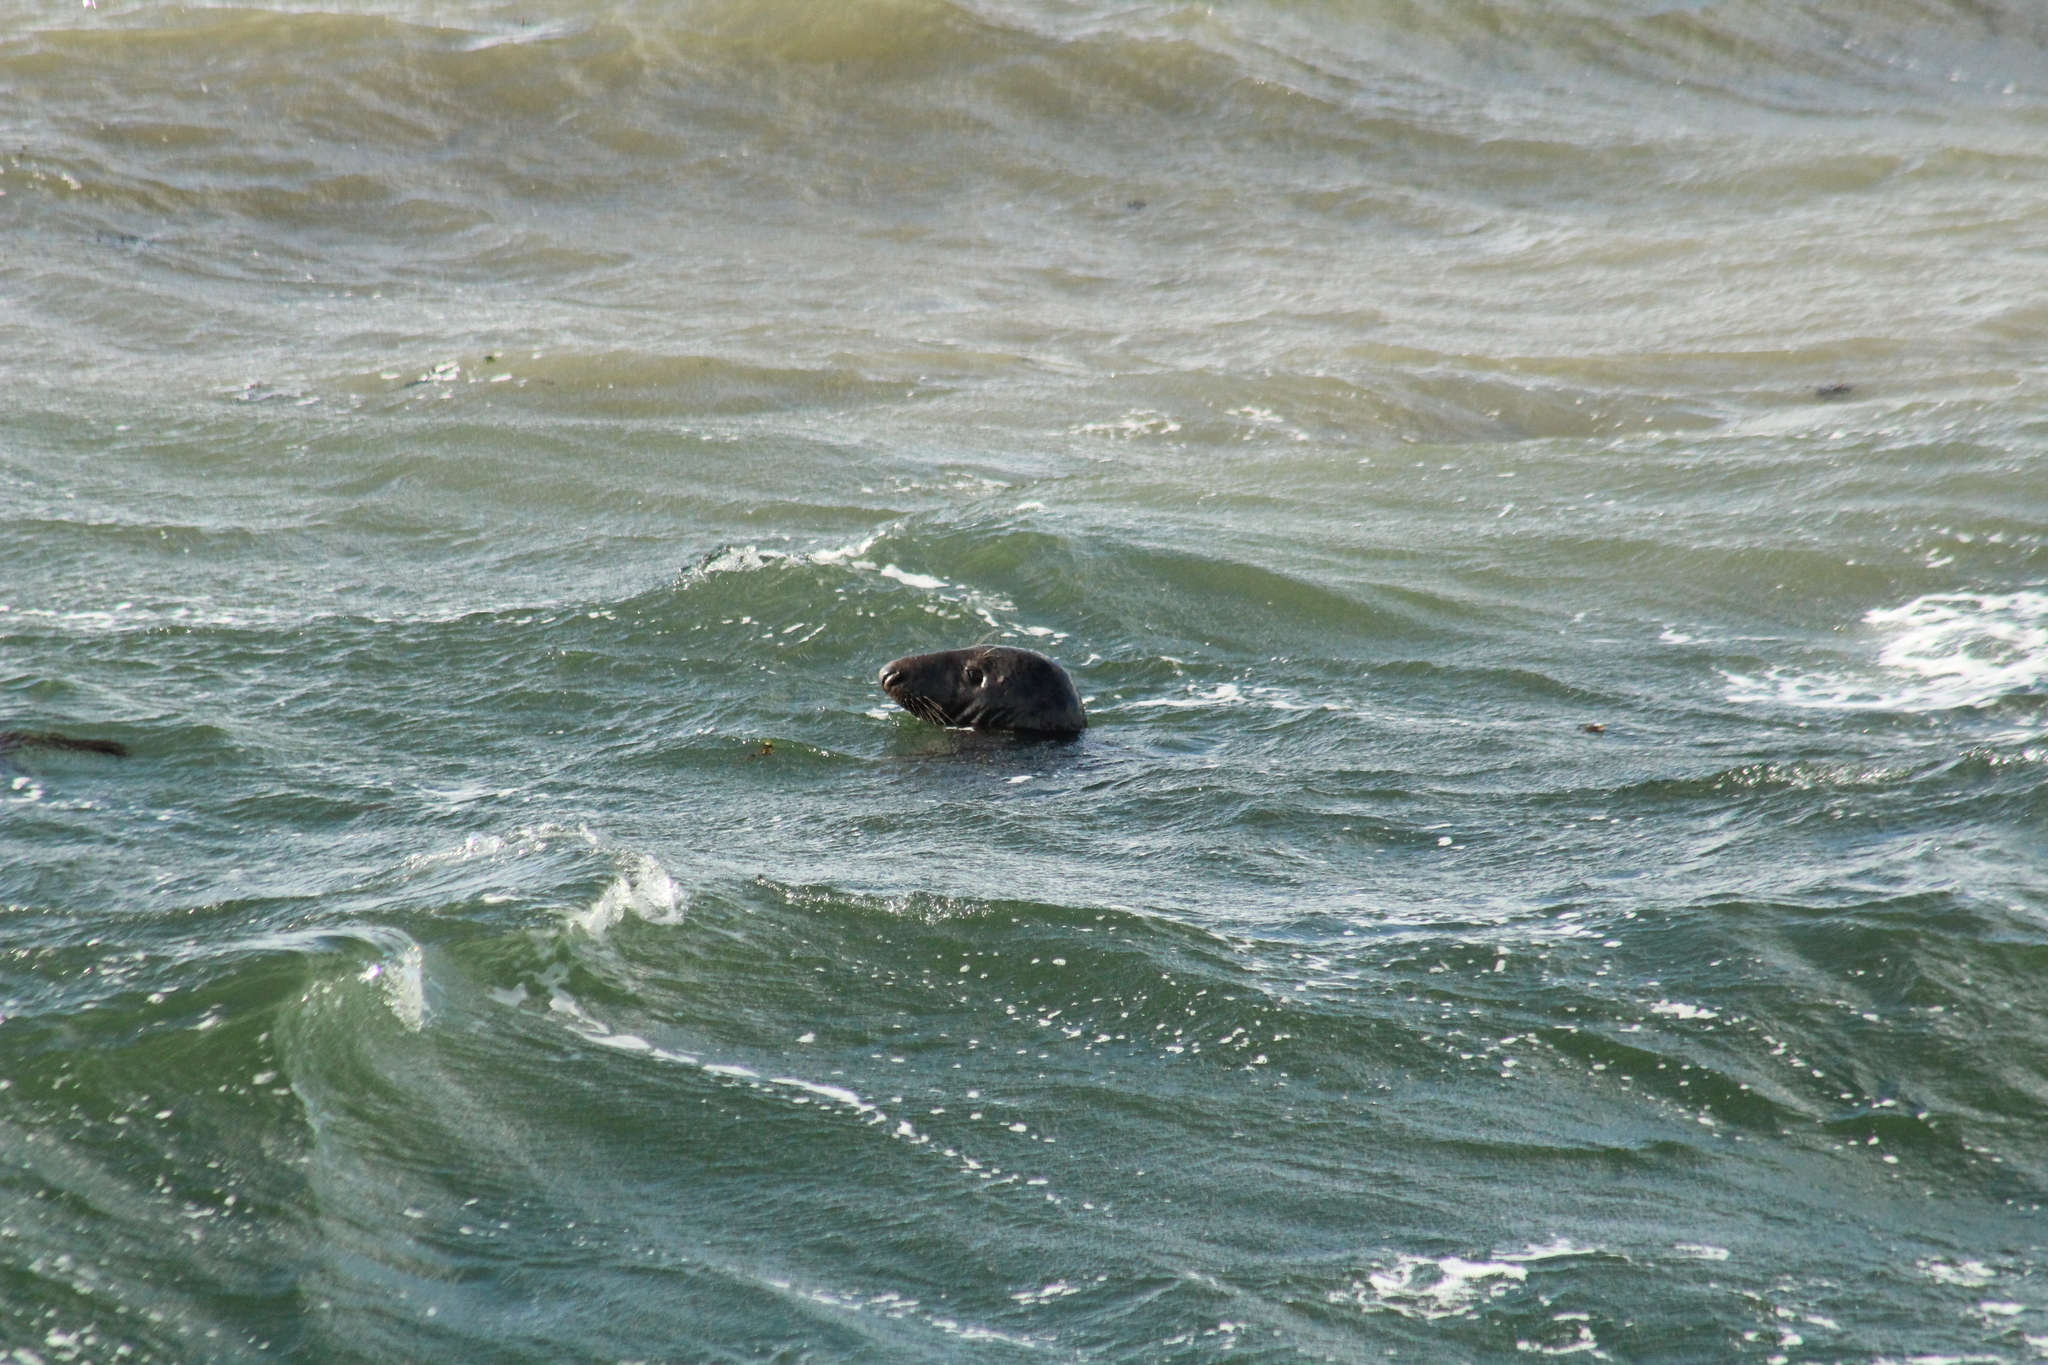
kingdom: Animalia
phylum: Chordata
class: Mammalia
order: Carnivora
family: Phocidae
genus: Halichoerus
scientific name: Halichoerus grypus
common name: Grey seal
